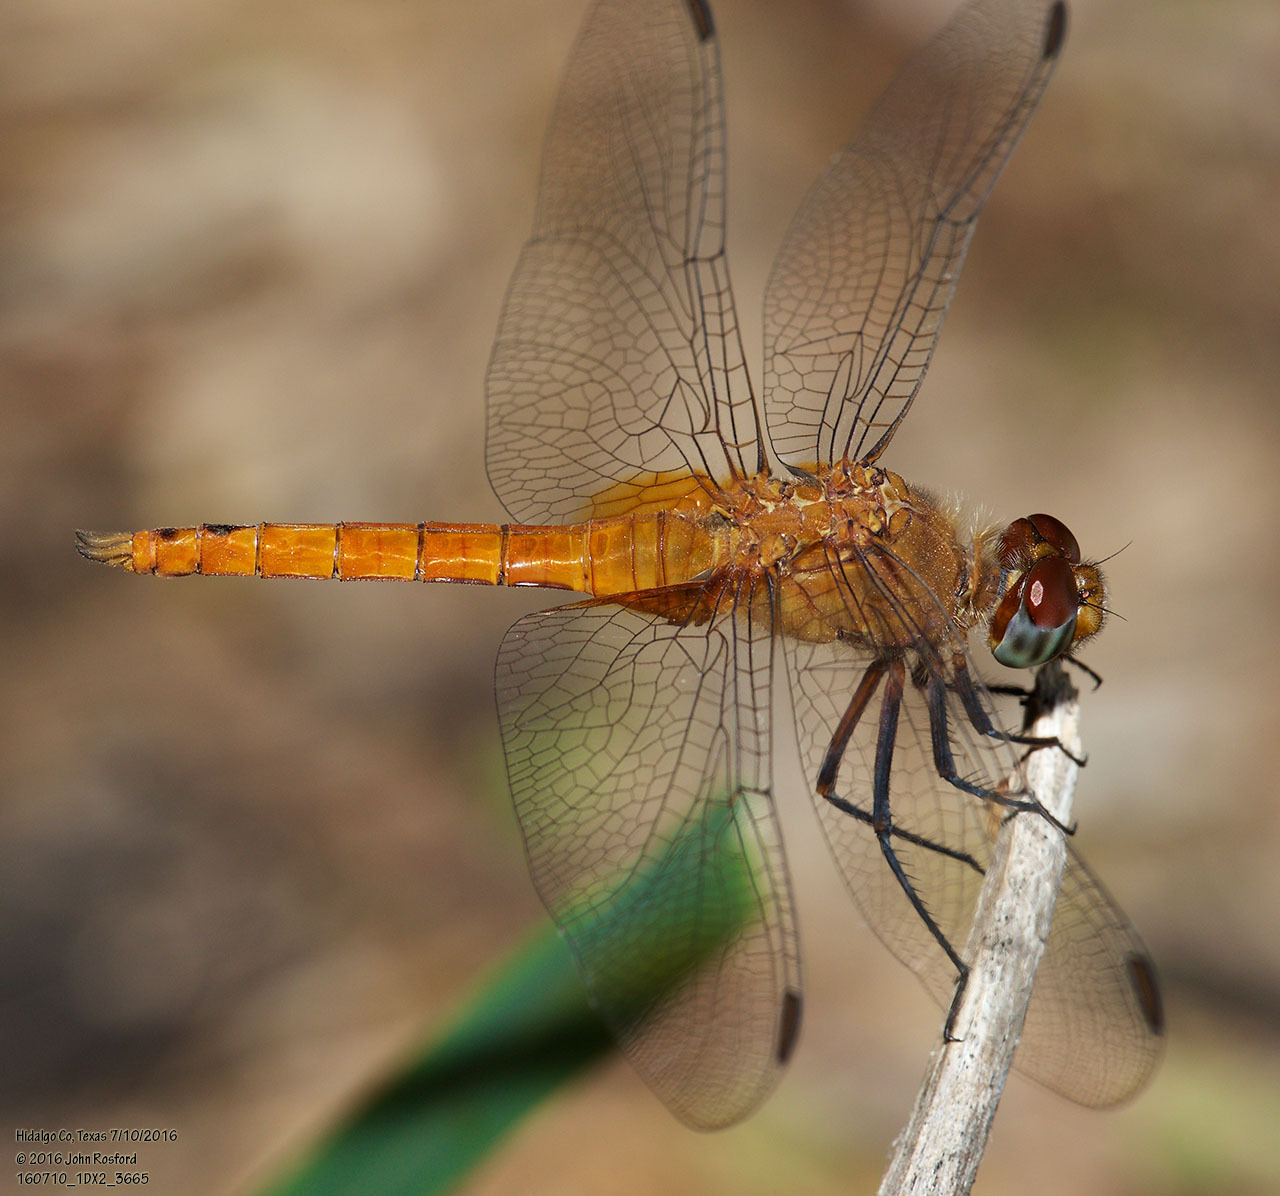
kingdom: Animalia
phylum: Arthropoda
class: Insecta
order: Odonata
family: Libellulidae
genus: Brachymesia
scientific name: Brachymesia furcata
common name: Red-taled pennant
